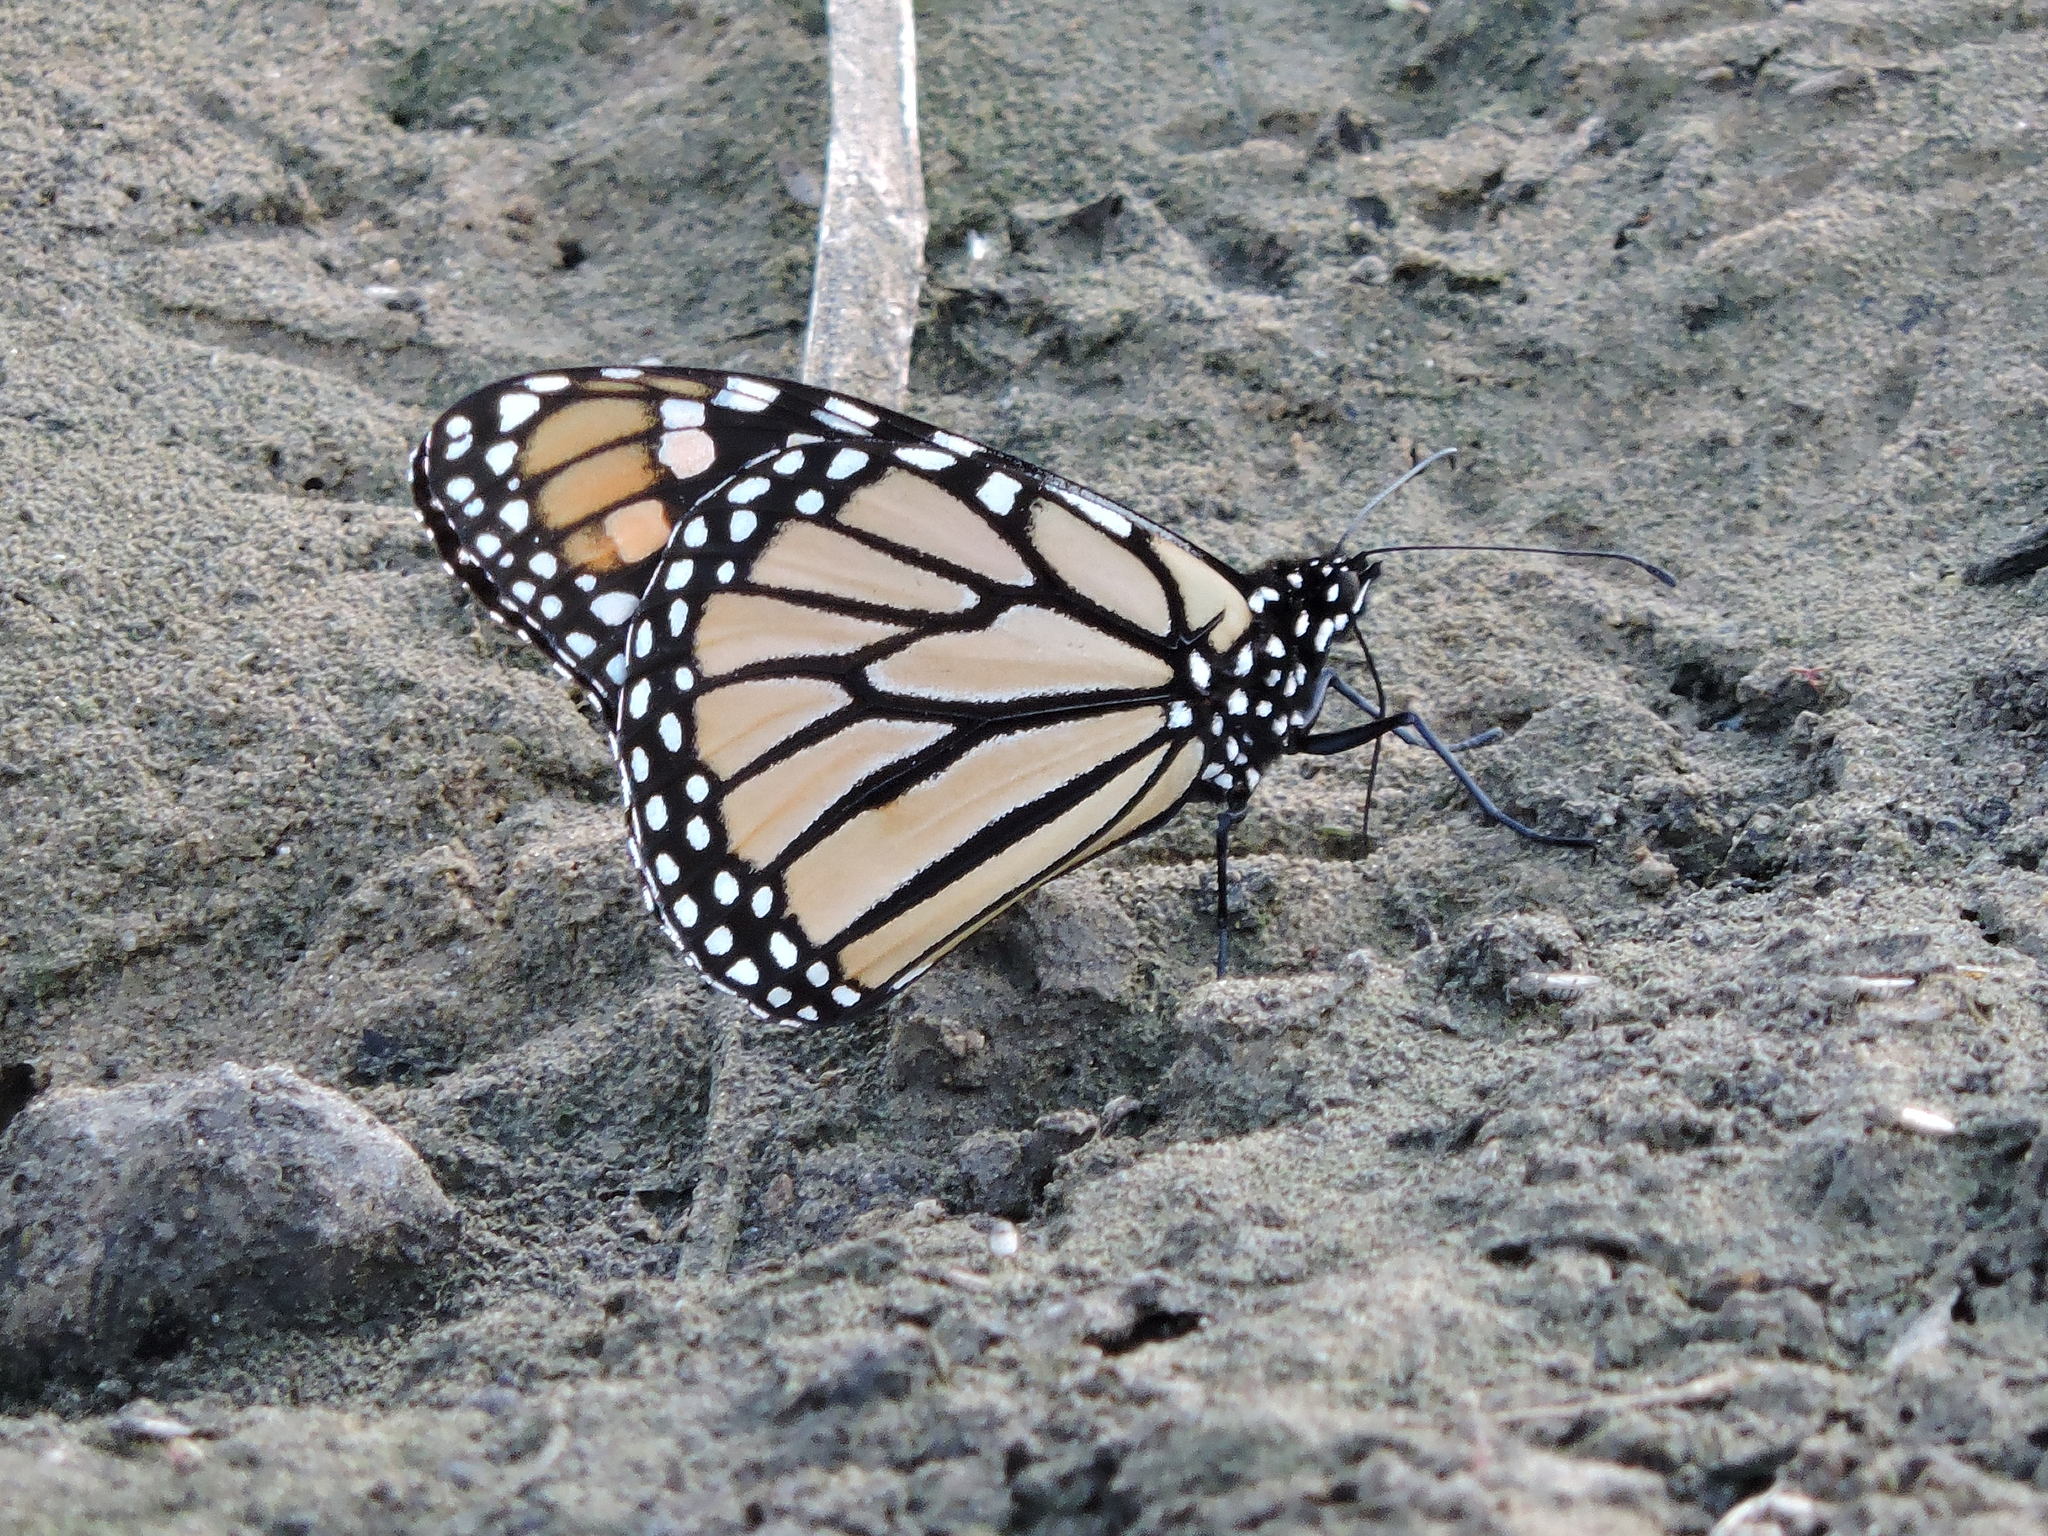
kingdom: Animalia
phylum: Arthropoda
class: Insecta
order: Lepidoptera
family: Nymphalidae
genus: Danaus
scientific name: Danaus plexippus
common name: Monarch
